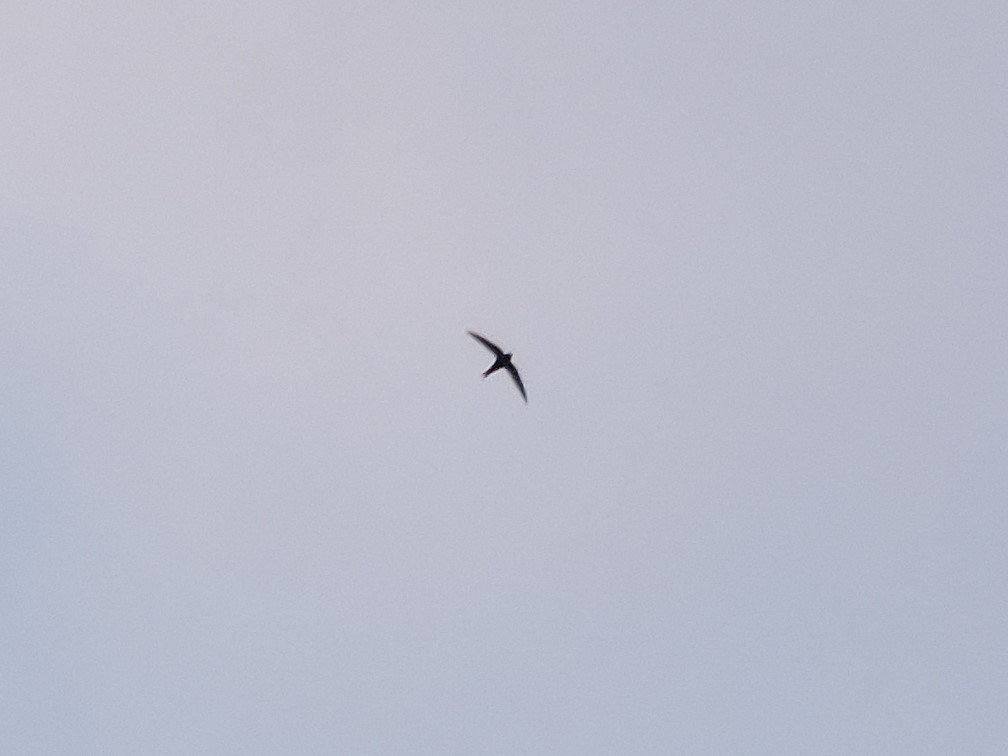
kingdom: Animalia
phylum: Chordata
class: Aves
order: Apodiformes
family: Apodidae
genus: Apus
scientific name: Apus apus
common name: Common swift
